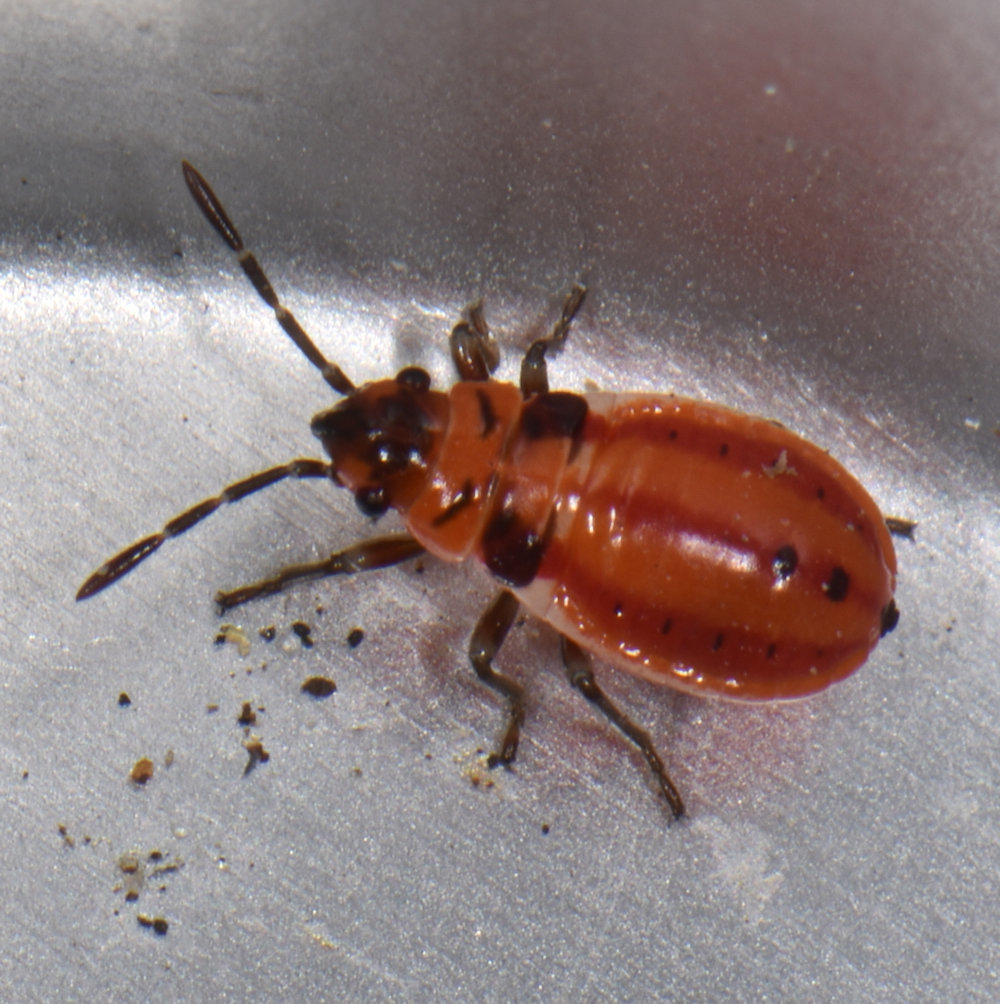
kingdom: Animalia
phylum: Arthropoda
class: Insecta
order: Hemiptera
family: Lygaeidae
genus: Lygaeus
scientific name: Lygaeus kalmii
